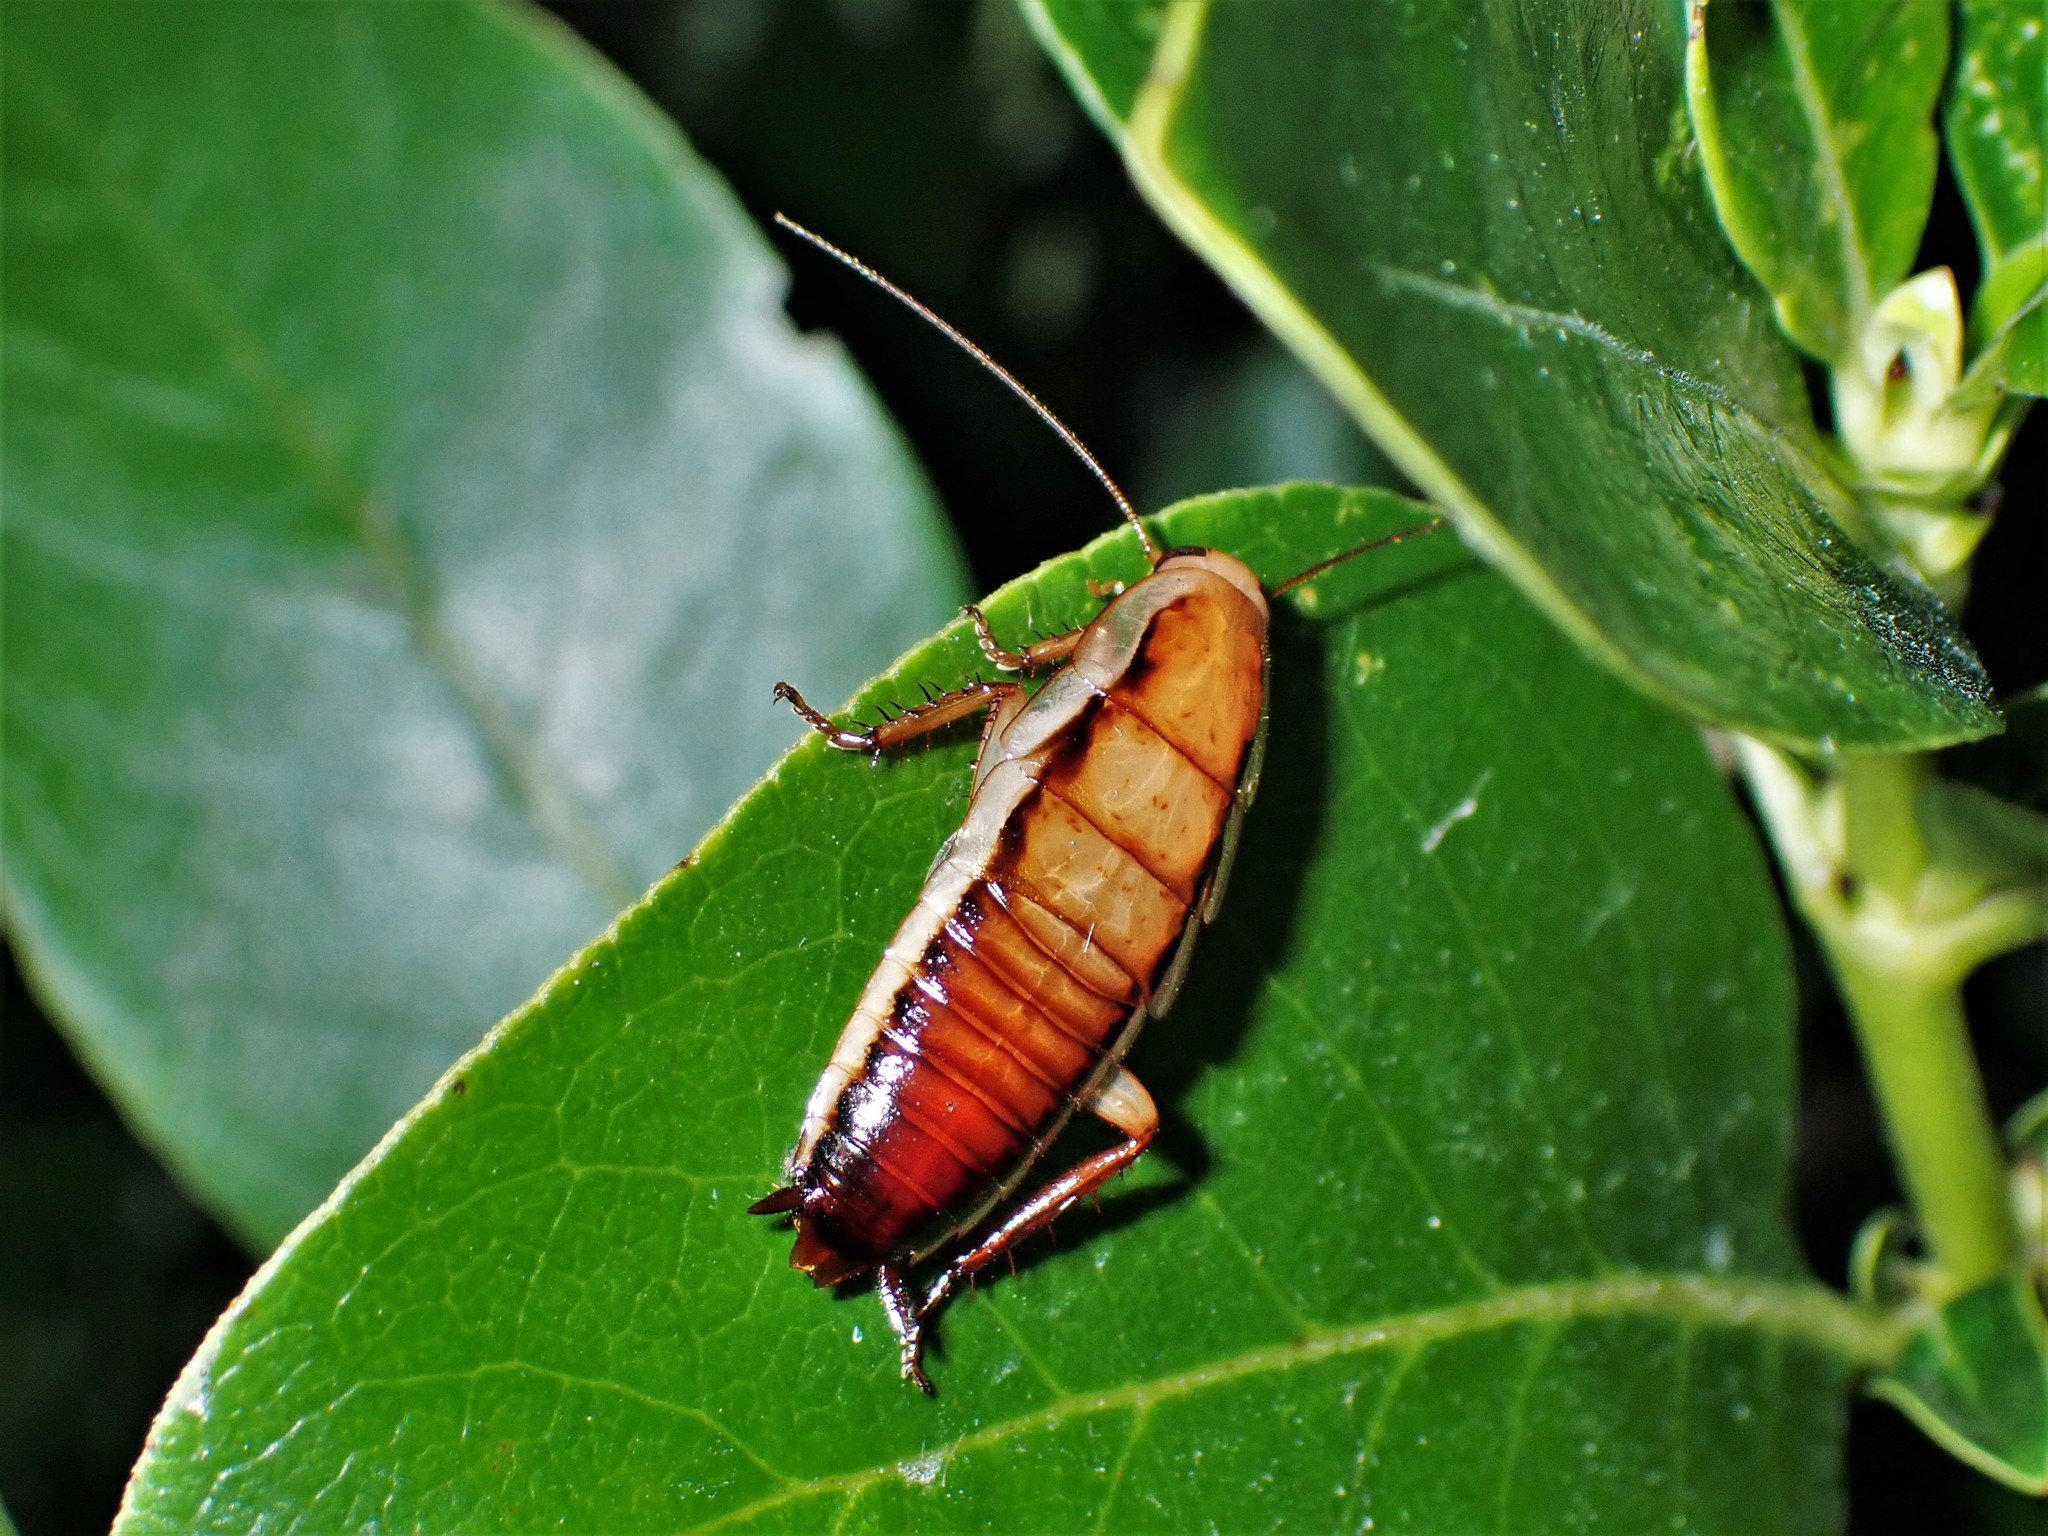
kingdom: Animalia
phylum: Arthropoda
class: Insecta
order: Blattodea
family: Blattidae
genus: Drymaplaneta
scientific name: Drymaplaneta heydeniana
